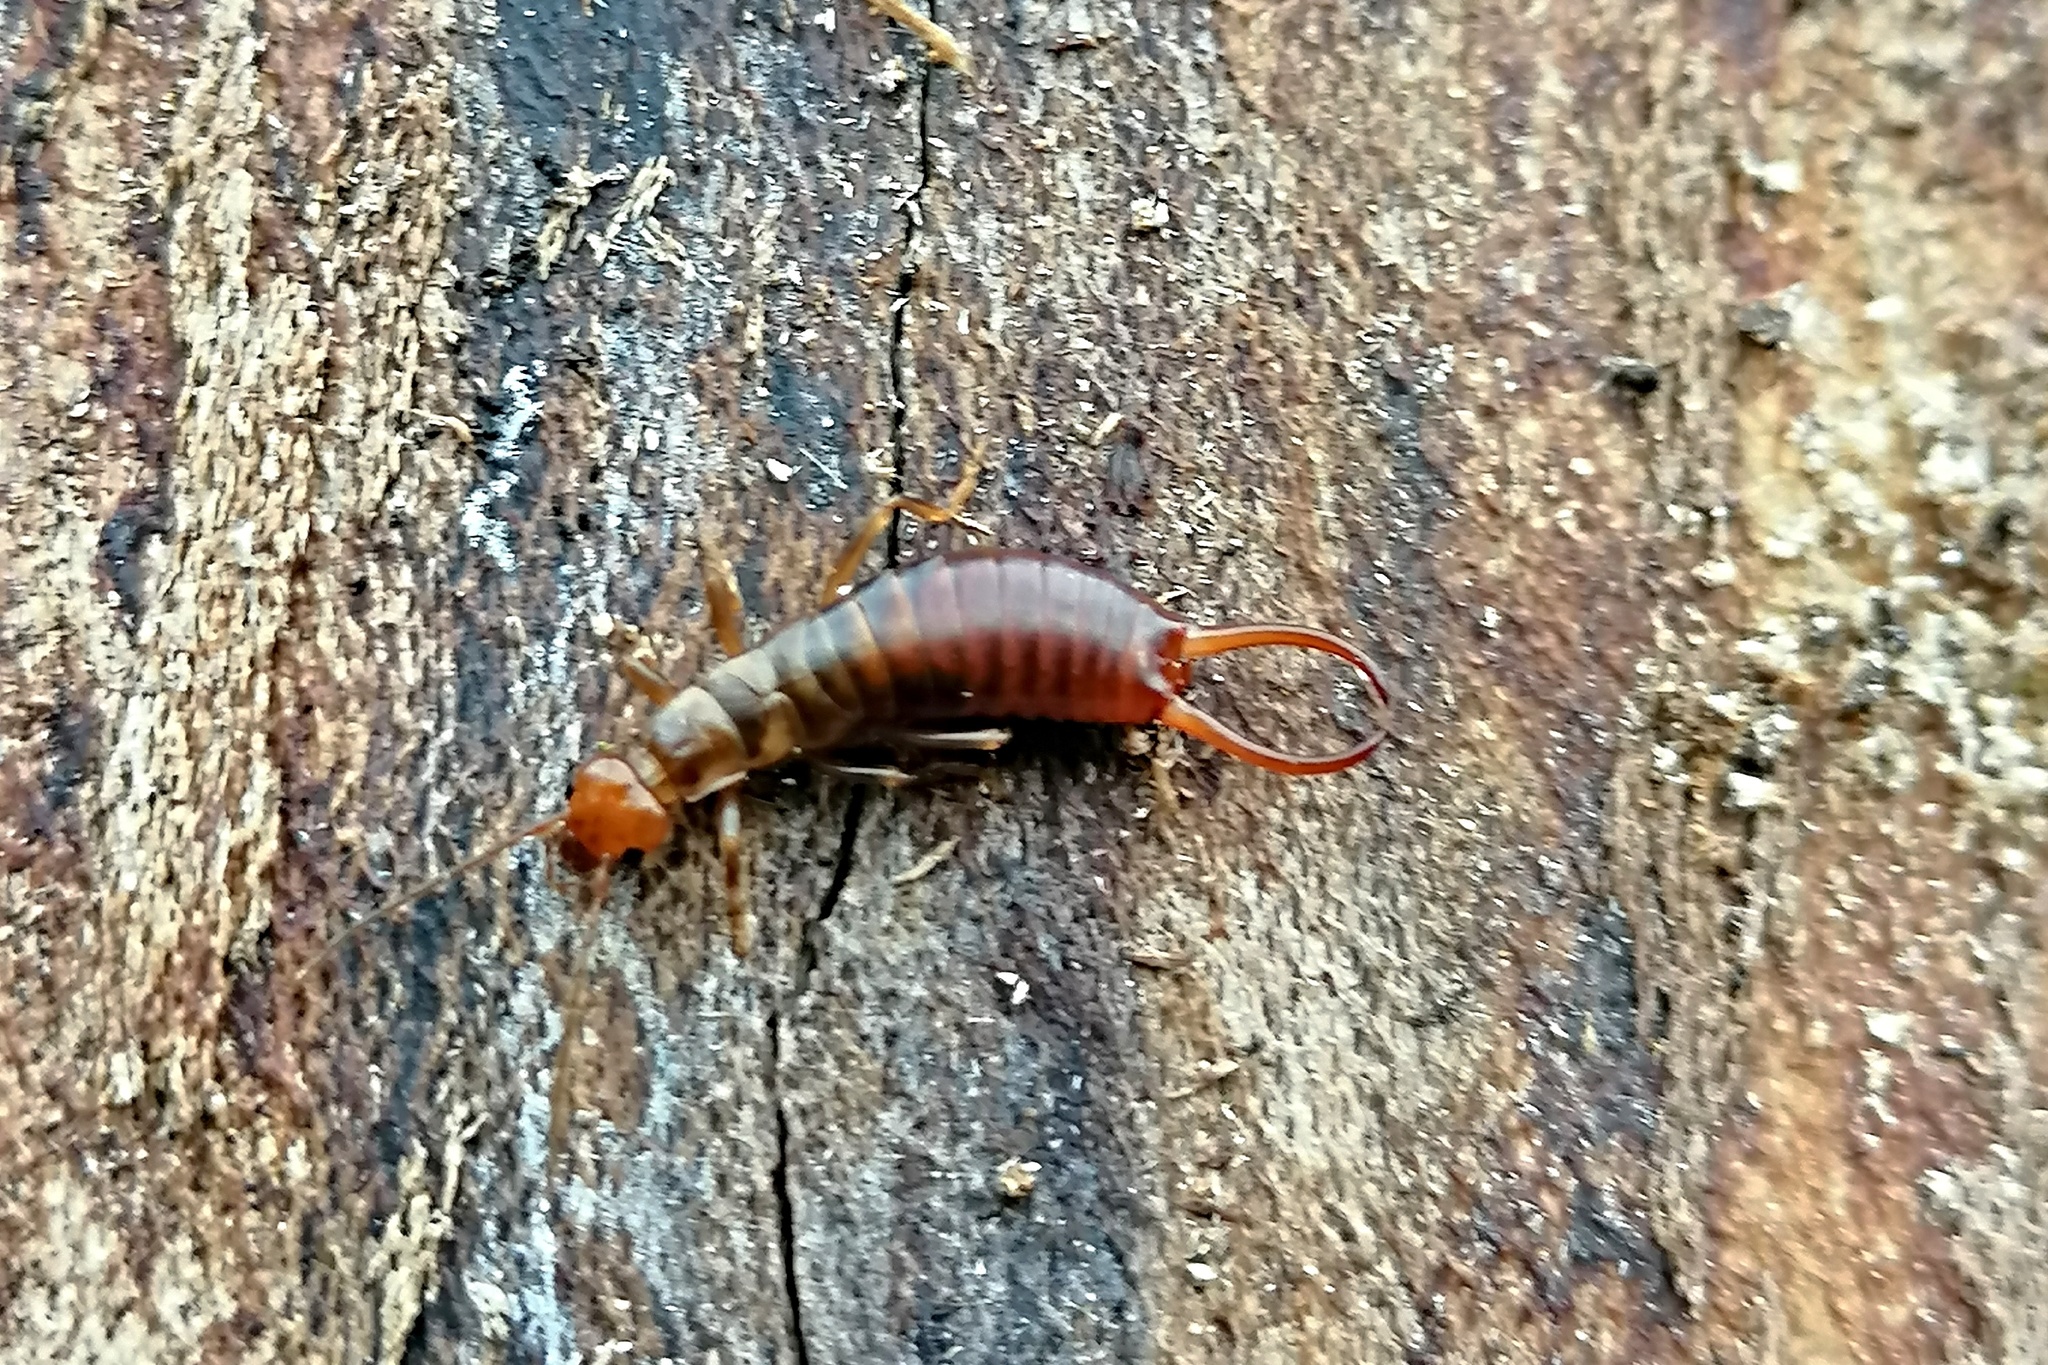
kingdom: Animalia
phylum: Arthropoda
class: Insecta
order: Dermaptera
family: Forficulidae
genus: Chelidurella
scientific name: Chelidurella acanthopygia
